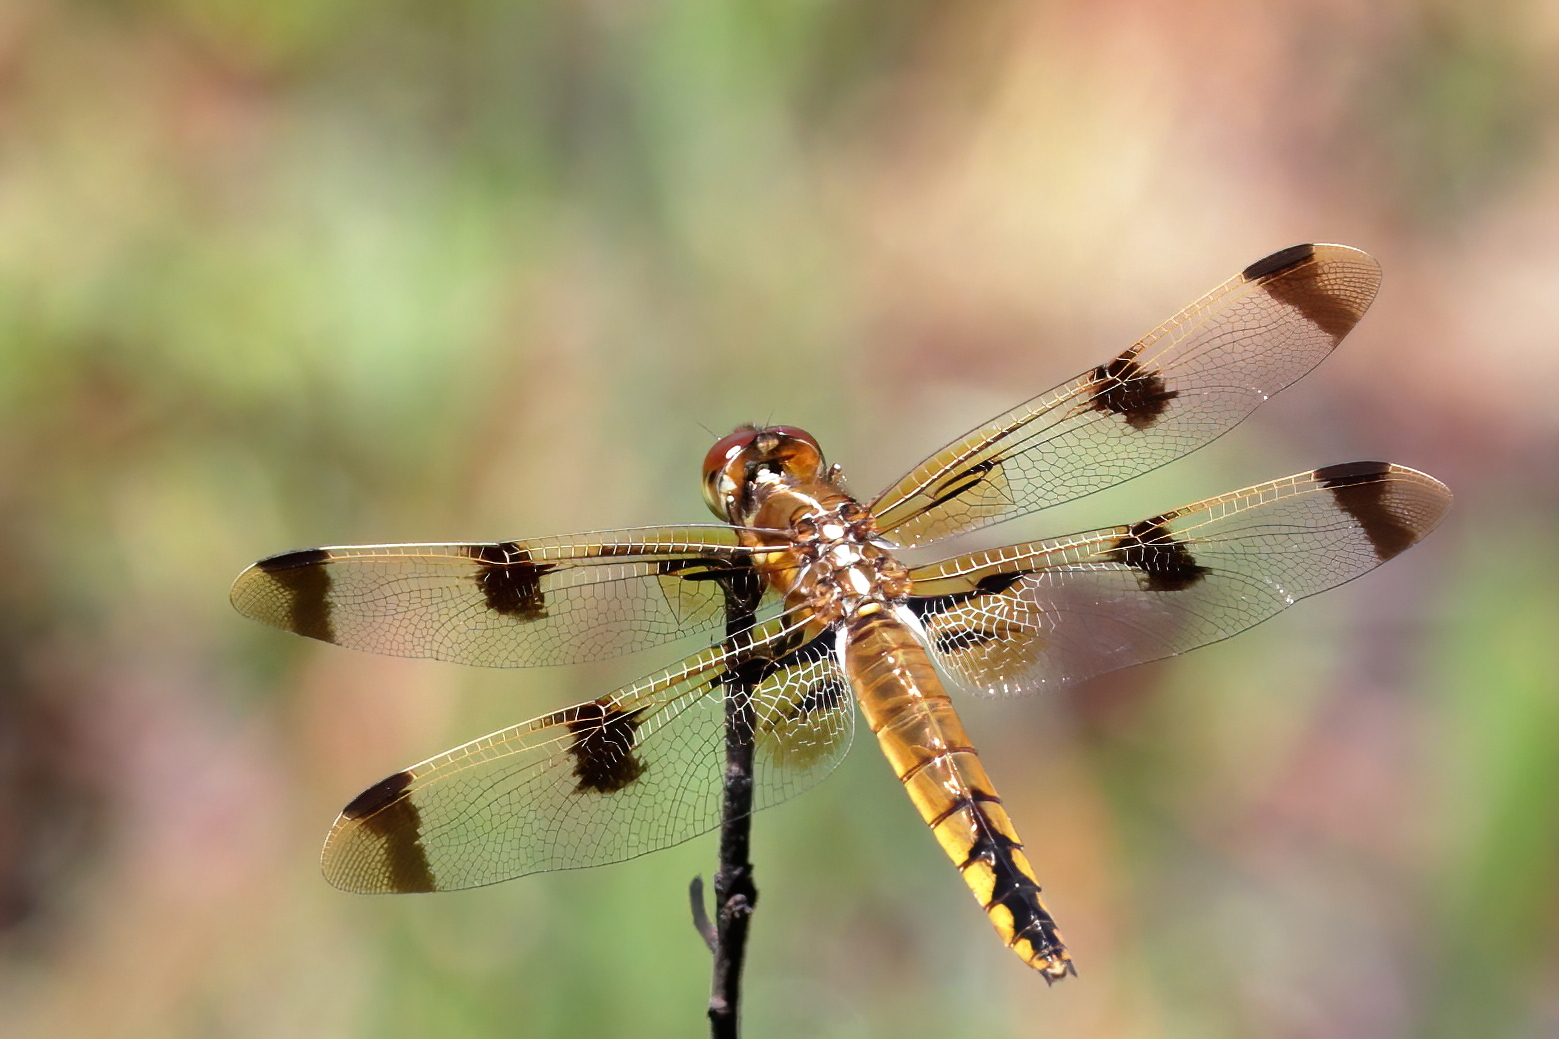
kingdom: Animalia
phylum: Arthropoda
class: Insecta
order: Odonata
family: Libellulidae
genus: Libellula
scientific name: Libellula semifasciata
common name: Painted skimmer
